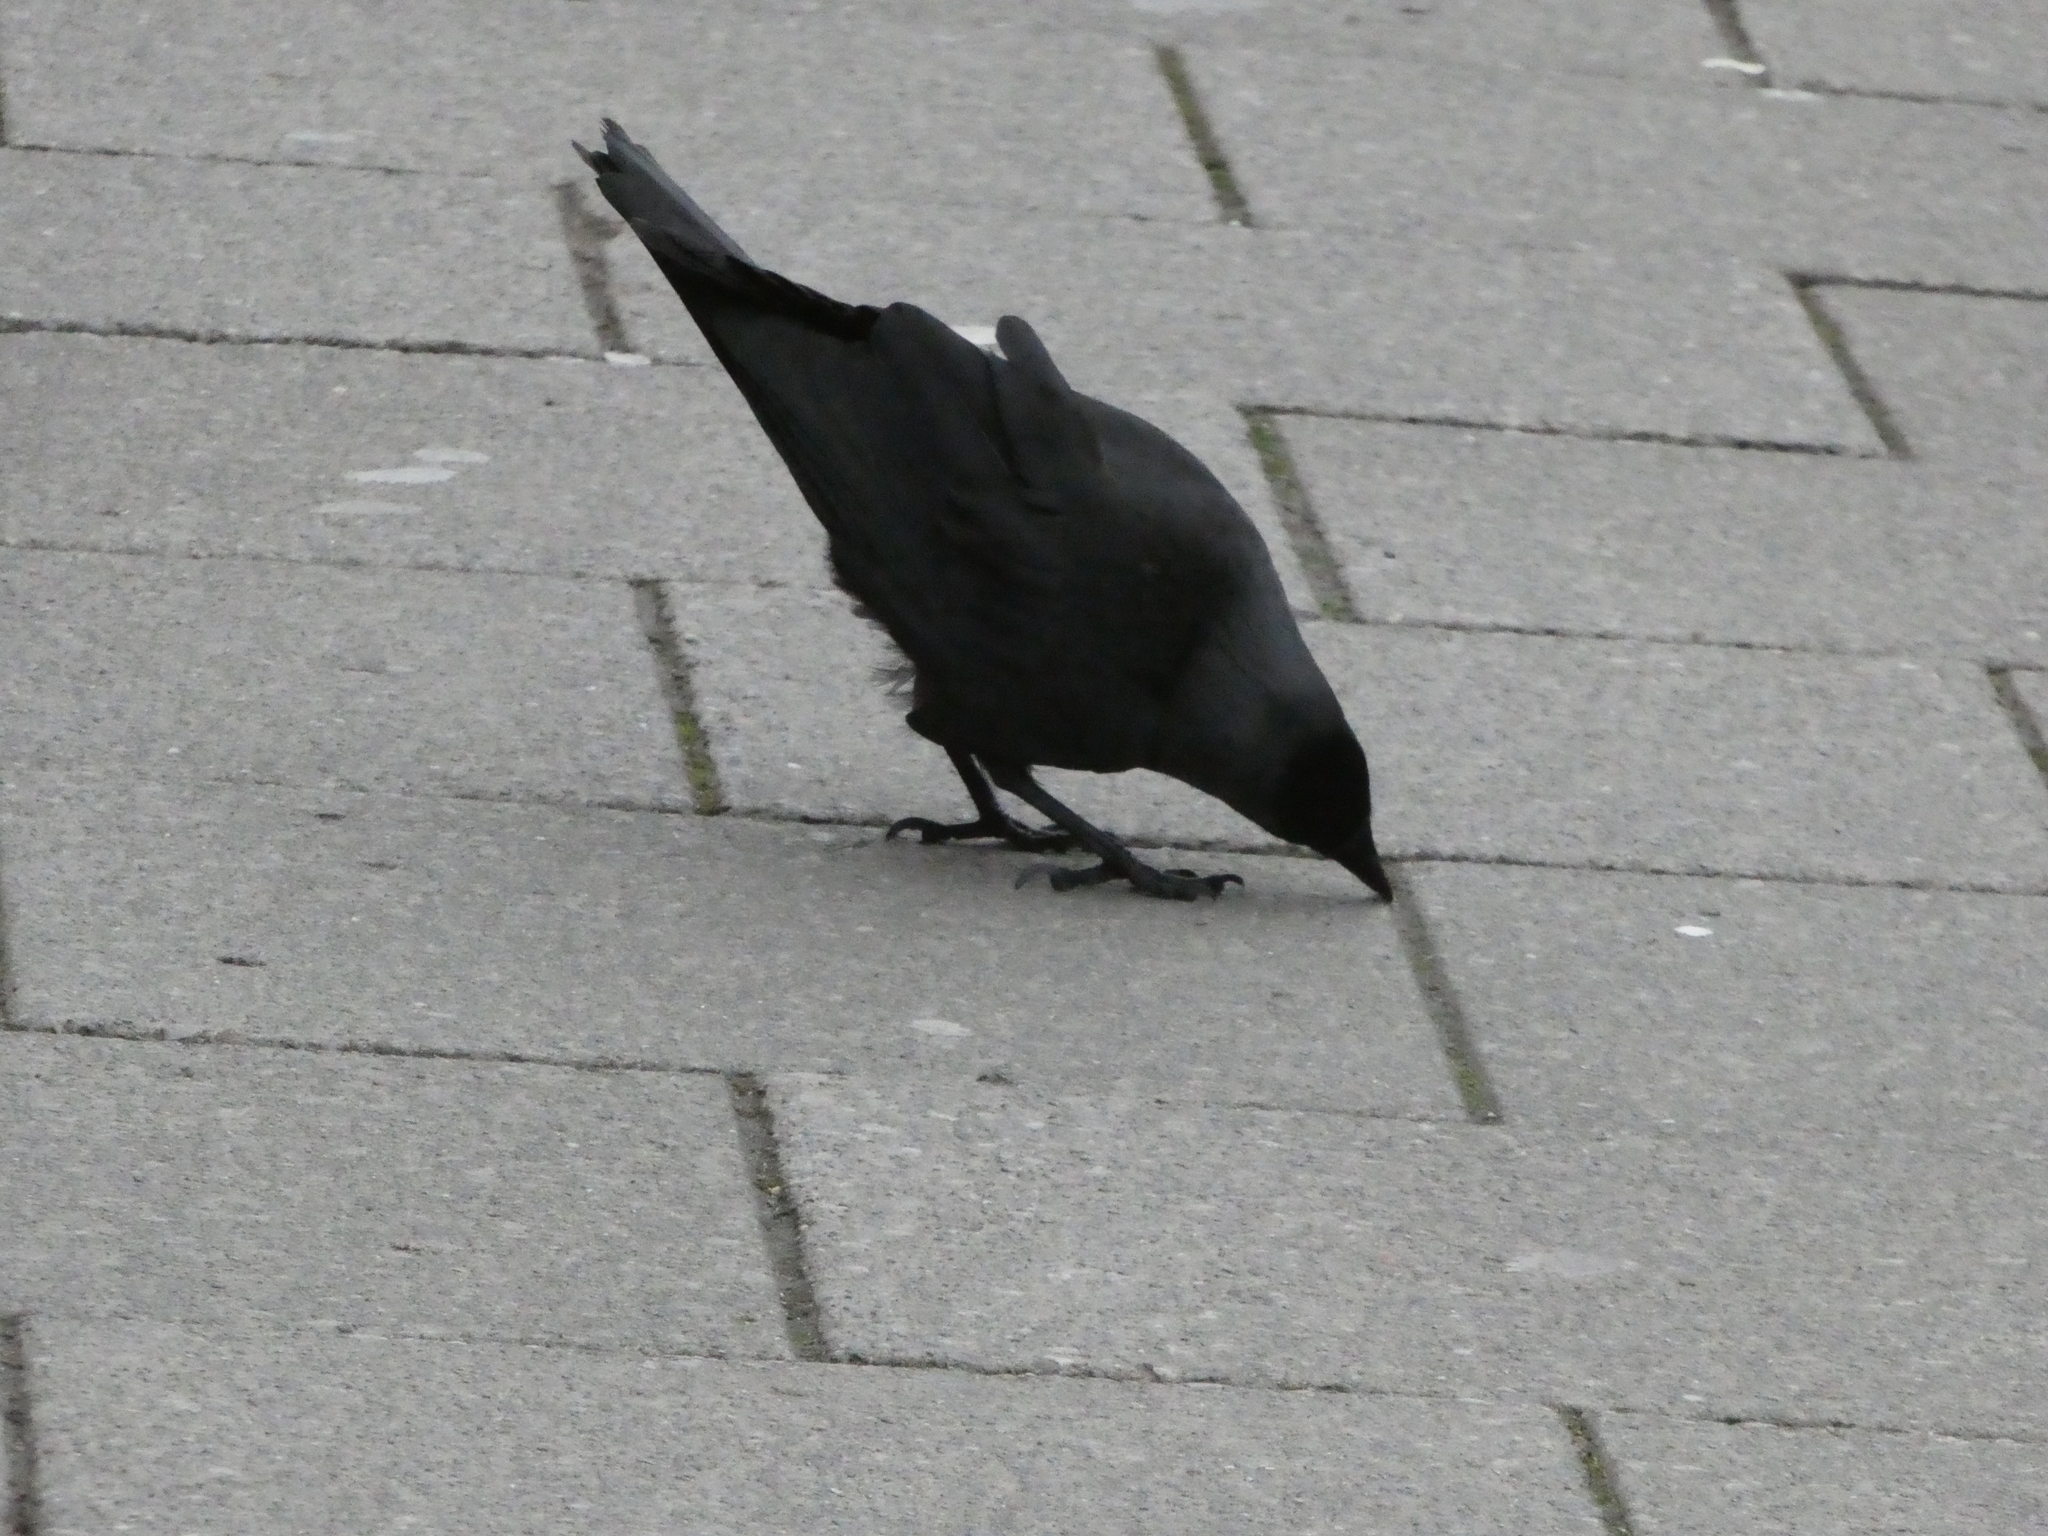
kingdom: Animalia
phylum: Chordata
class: Aves
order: Passeriformes
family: Corvidae
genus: Coloeus
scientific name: Coloeus monedula
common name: Western jackdaw
